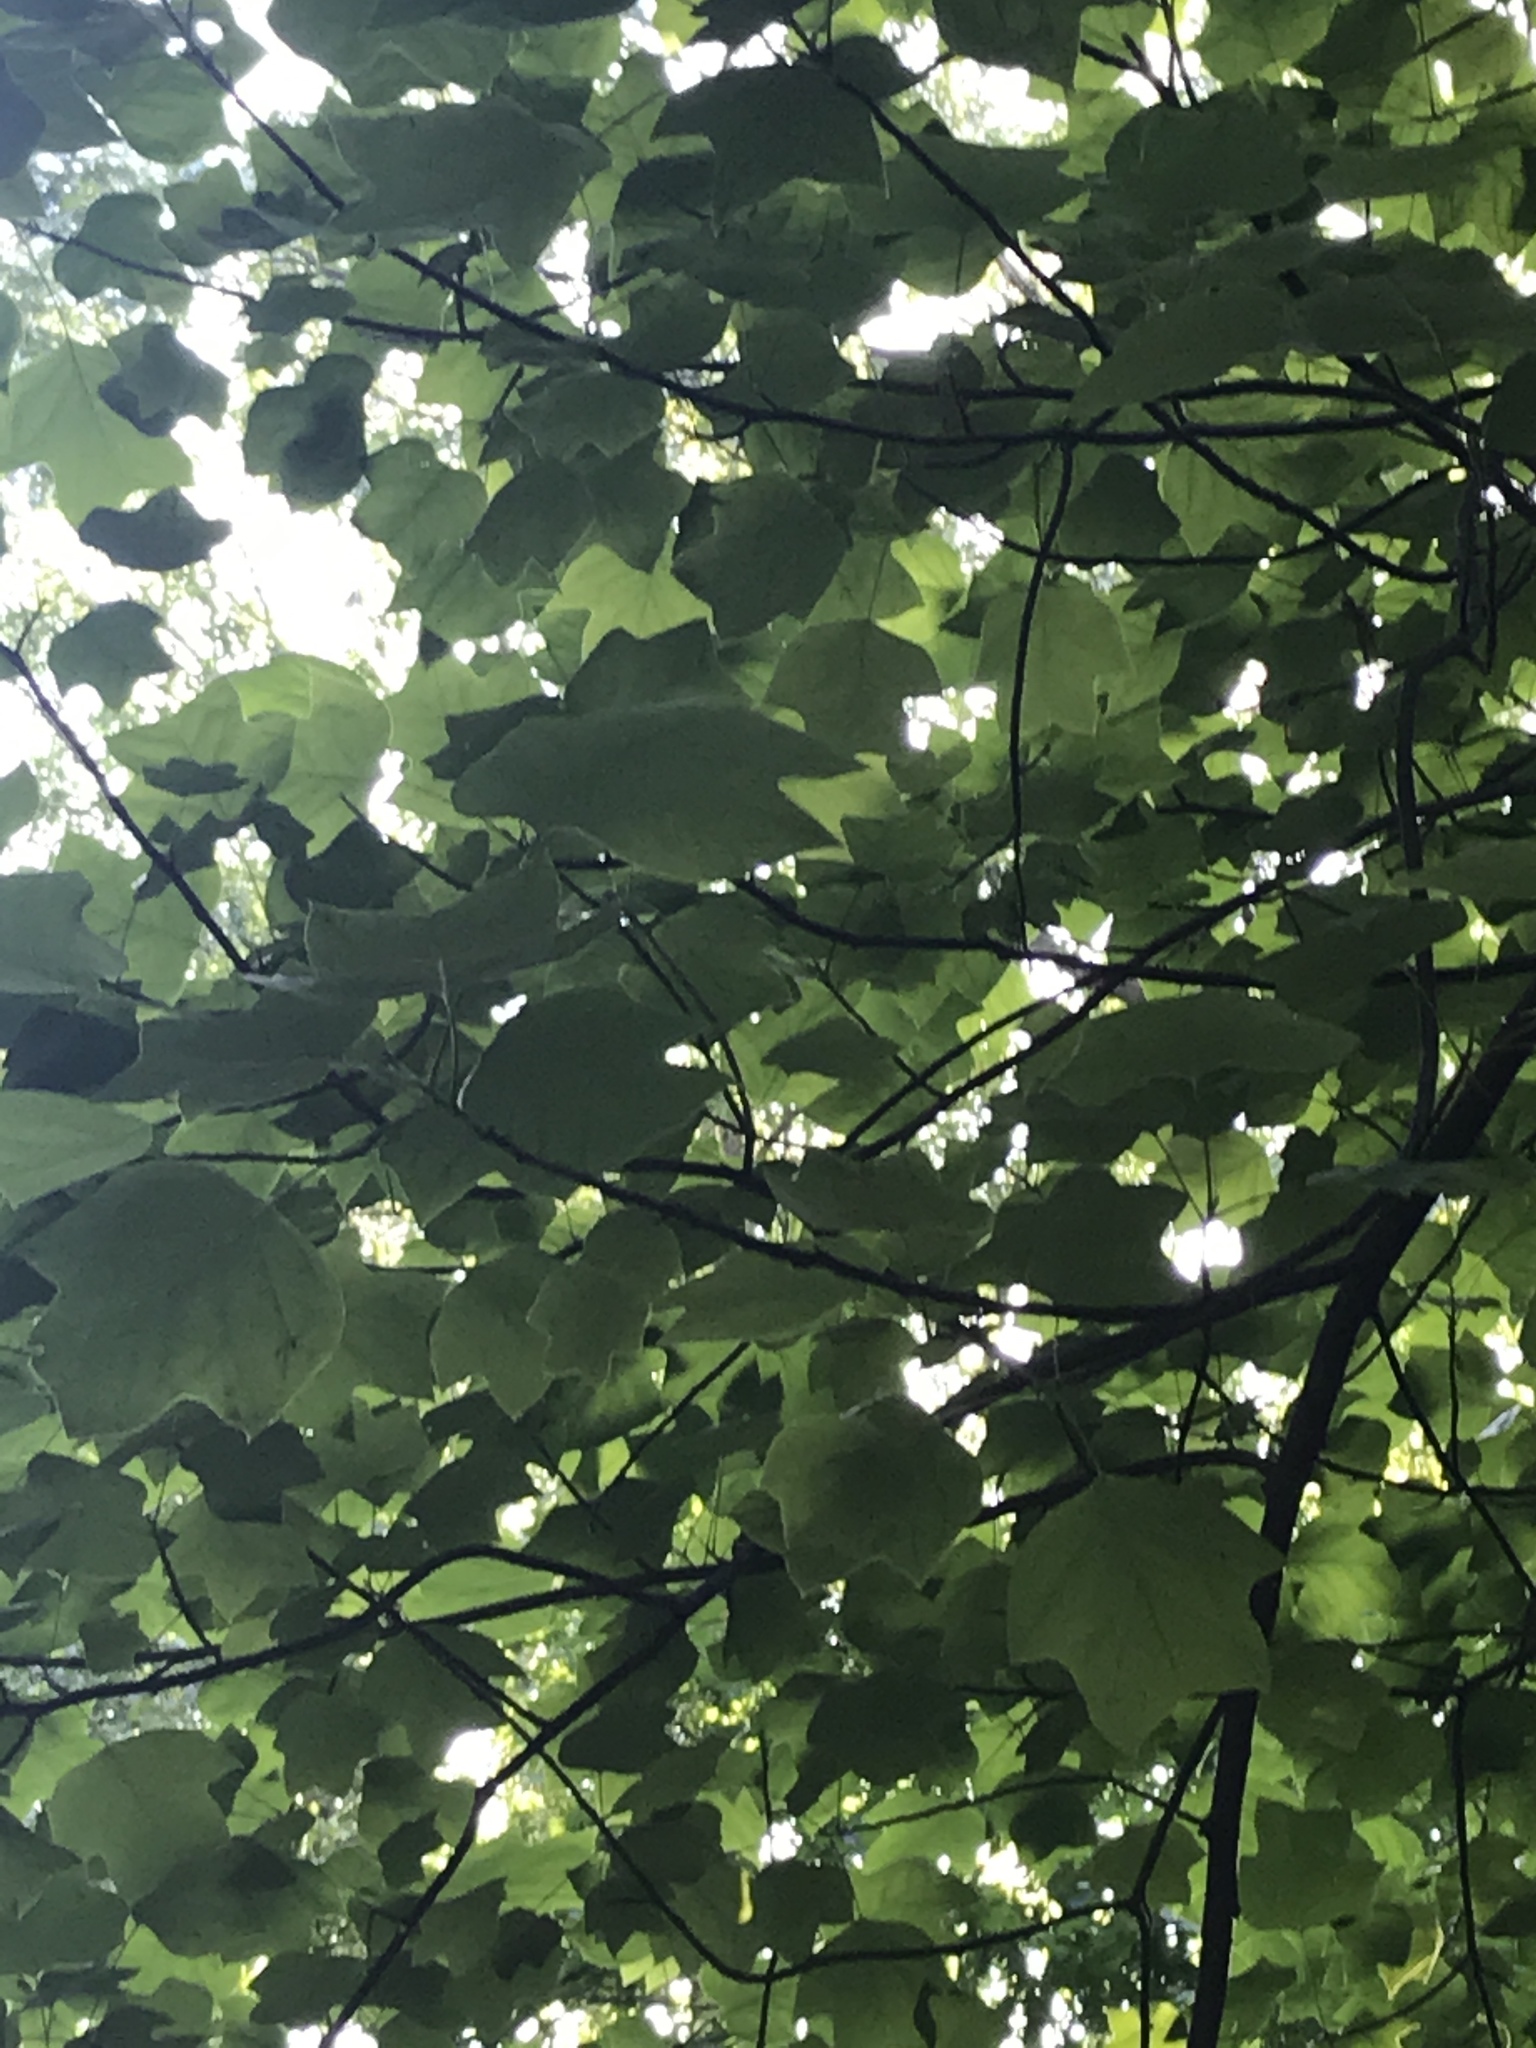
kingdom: Plantae
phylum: Tracheophyta
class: Magnoliopsida
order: Magnoliales
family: Magnoliaceae
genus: Liriodendron
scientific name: Liriodendron tulipifera
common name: Tulip tree
